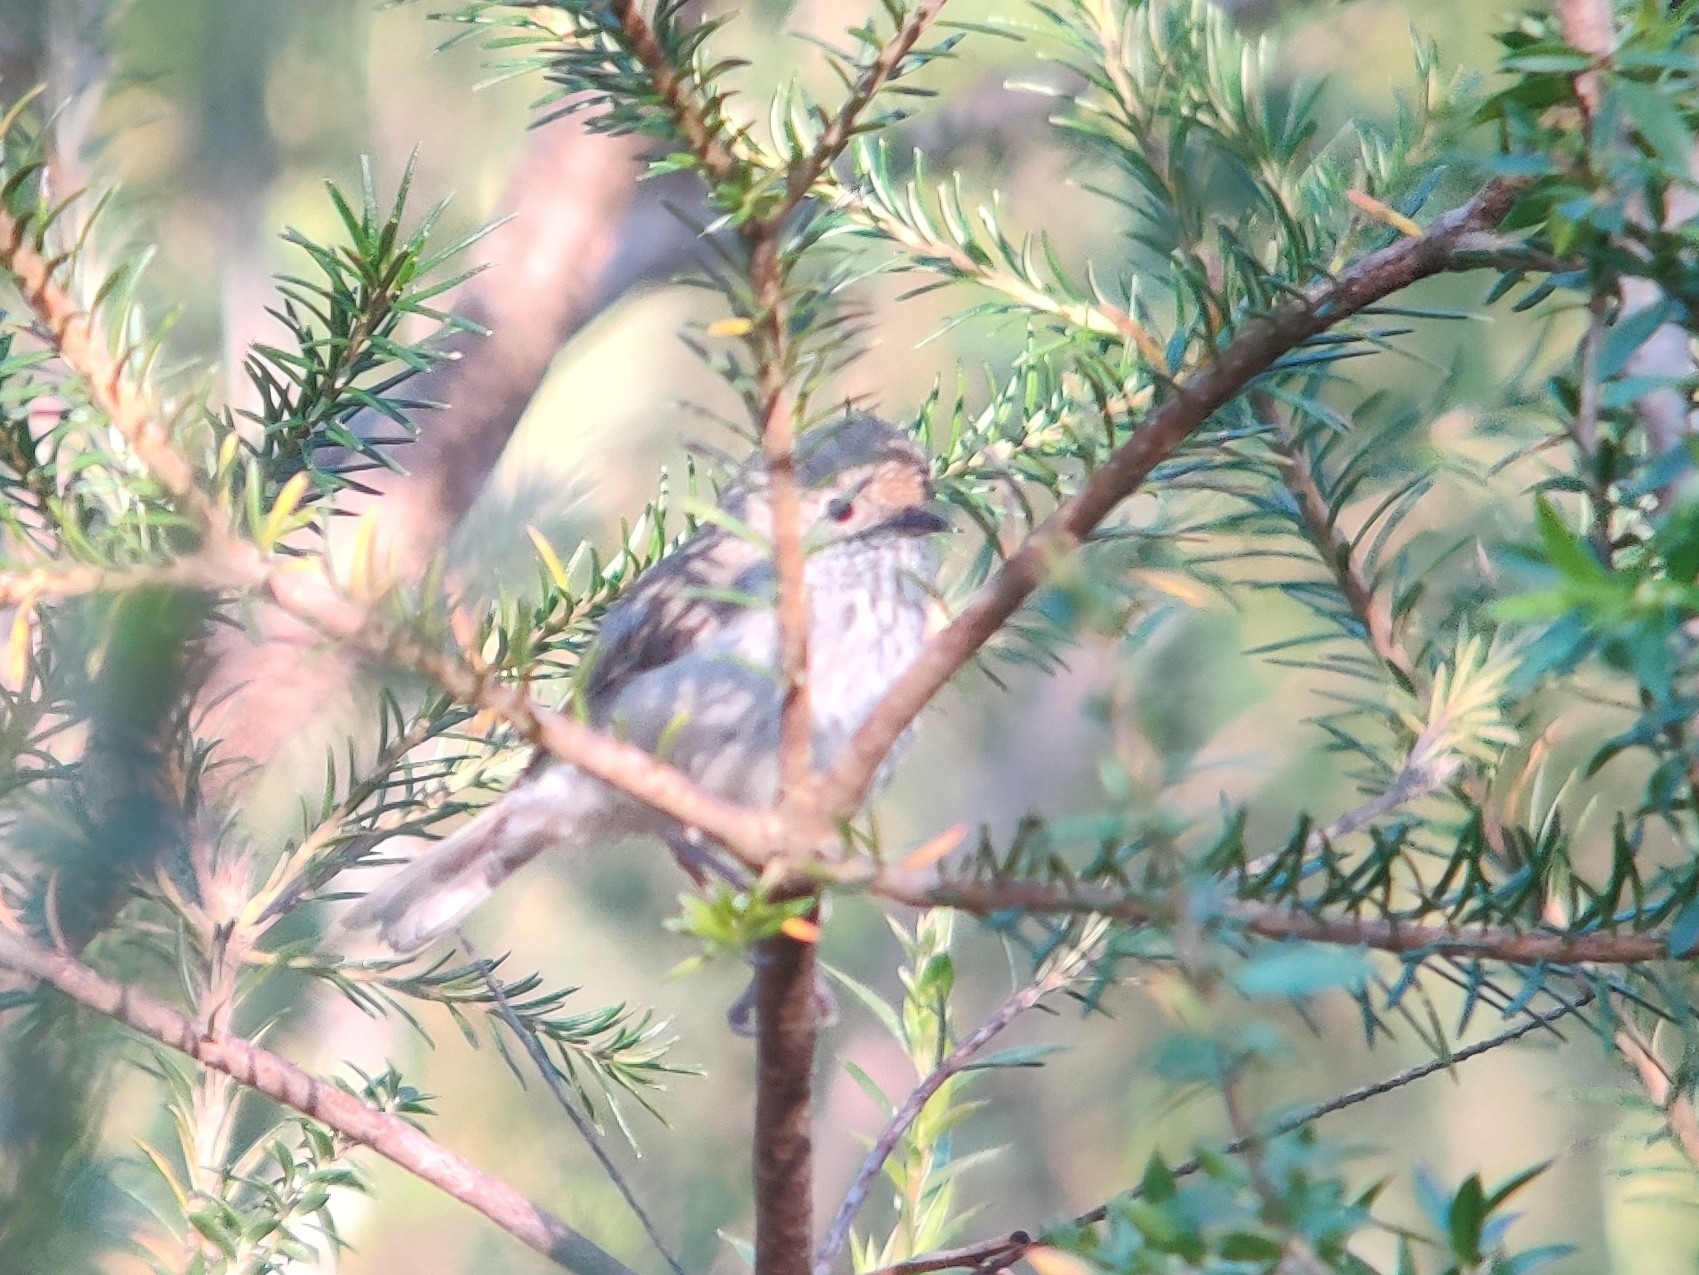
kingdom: Animalia
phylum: Chordata
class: Aves
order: Passeriformes
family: Acanthizidae
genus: Acanthiza
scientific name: Acanthiza pusilla
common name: Brown thornbill
